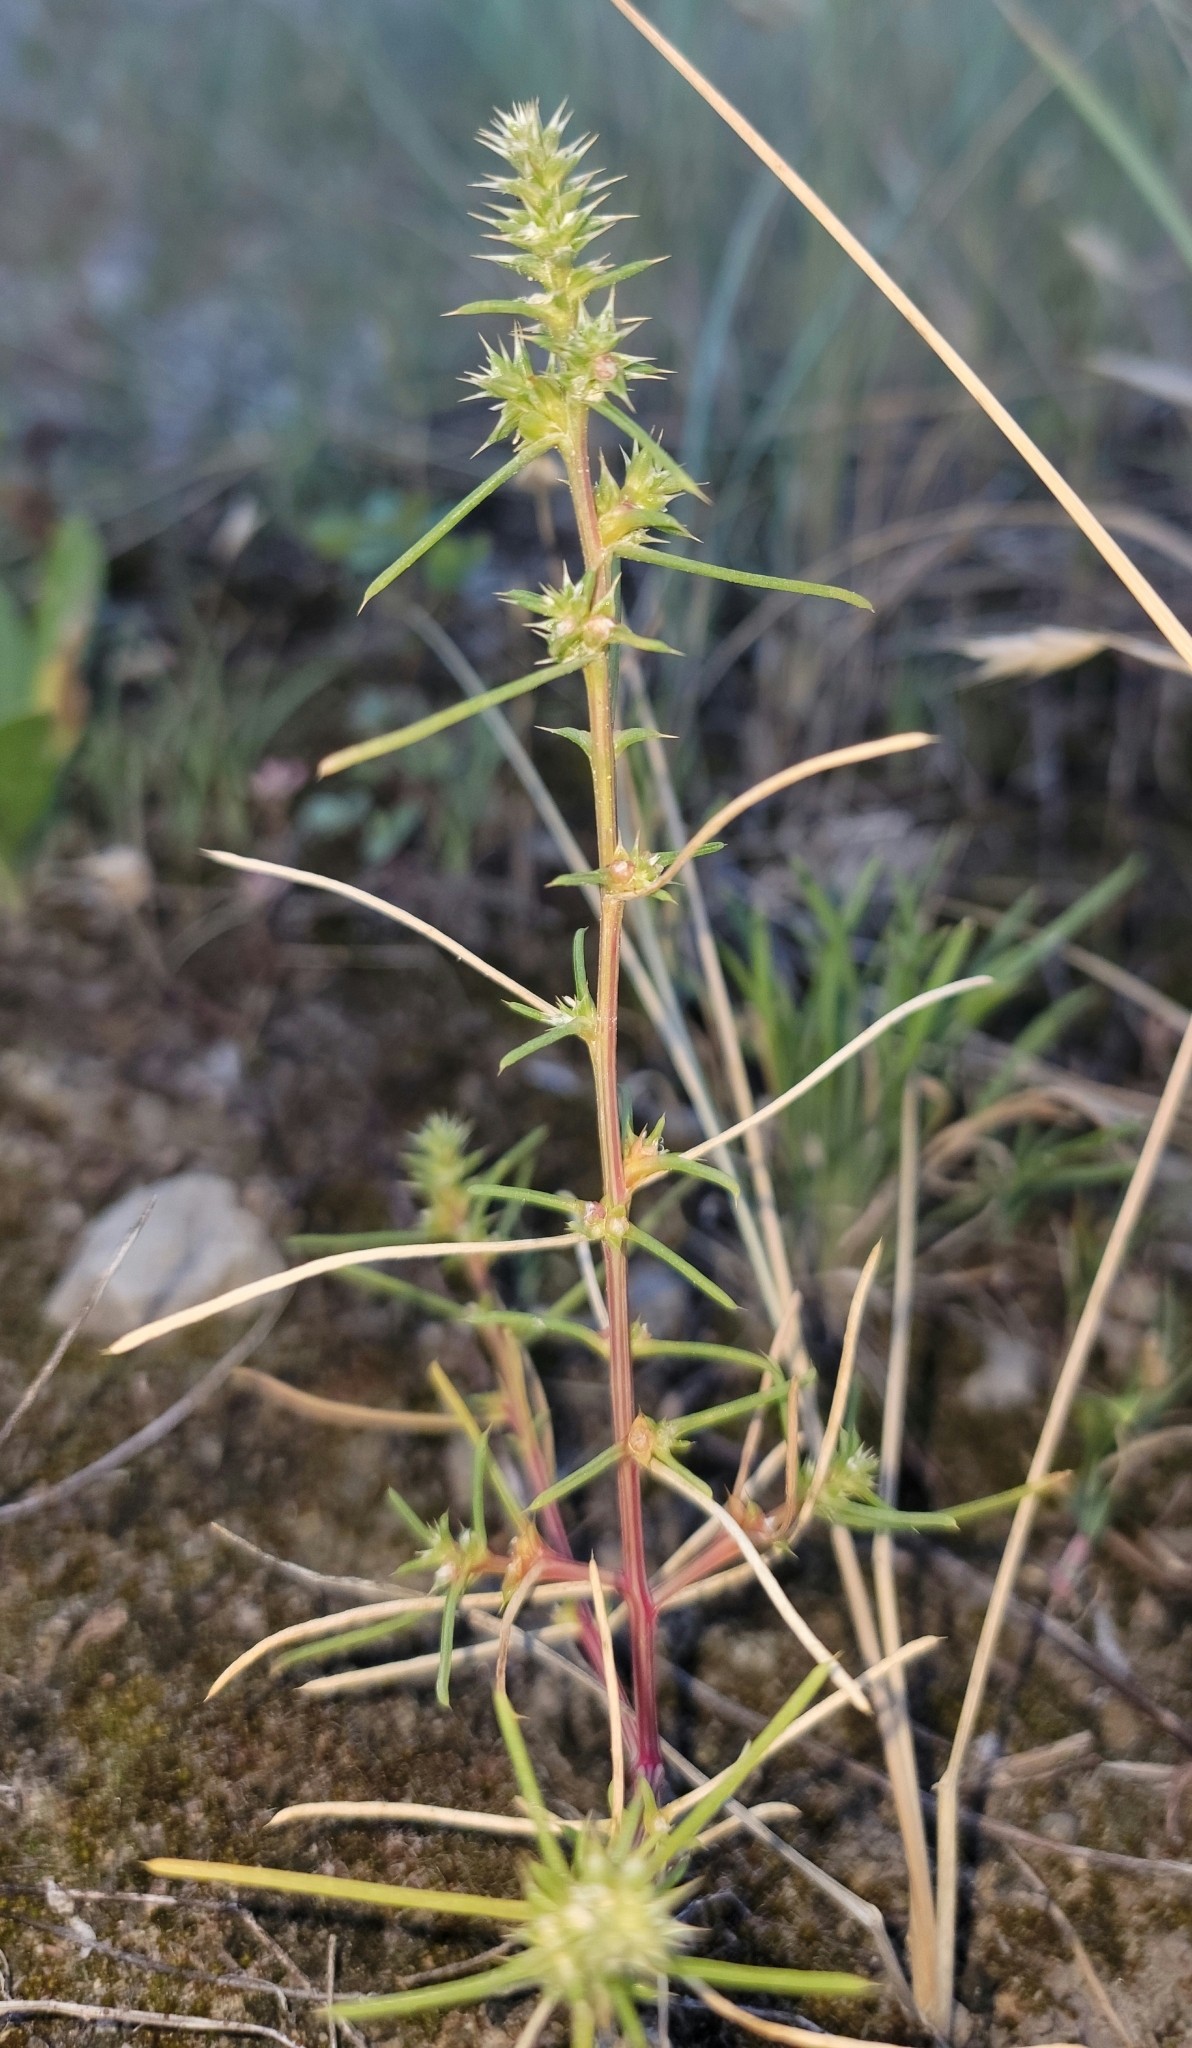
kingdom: Plantae
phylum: Tracheophyta
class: Magnoliopsida
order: Caryophyllales
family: Amaranthaceae
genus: Salsola
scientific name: Salsola tragus
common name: Prickly russian thistle
